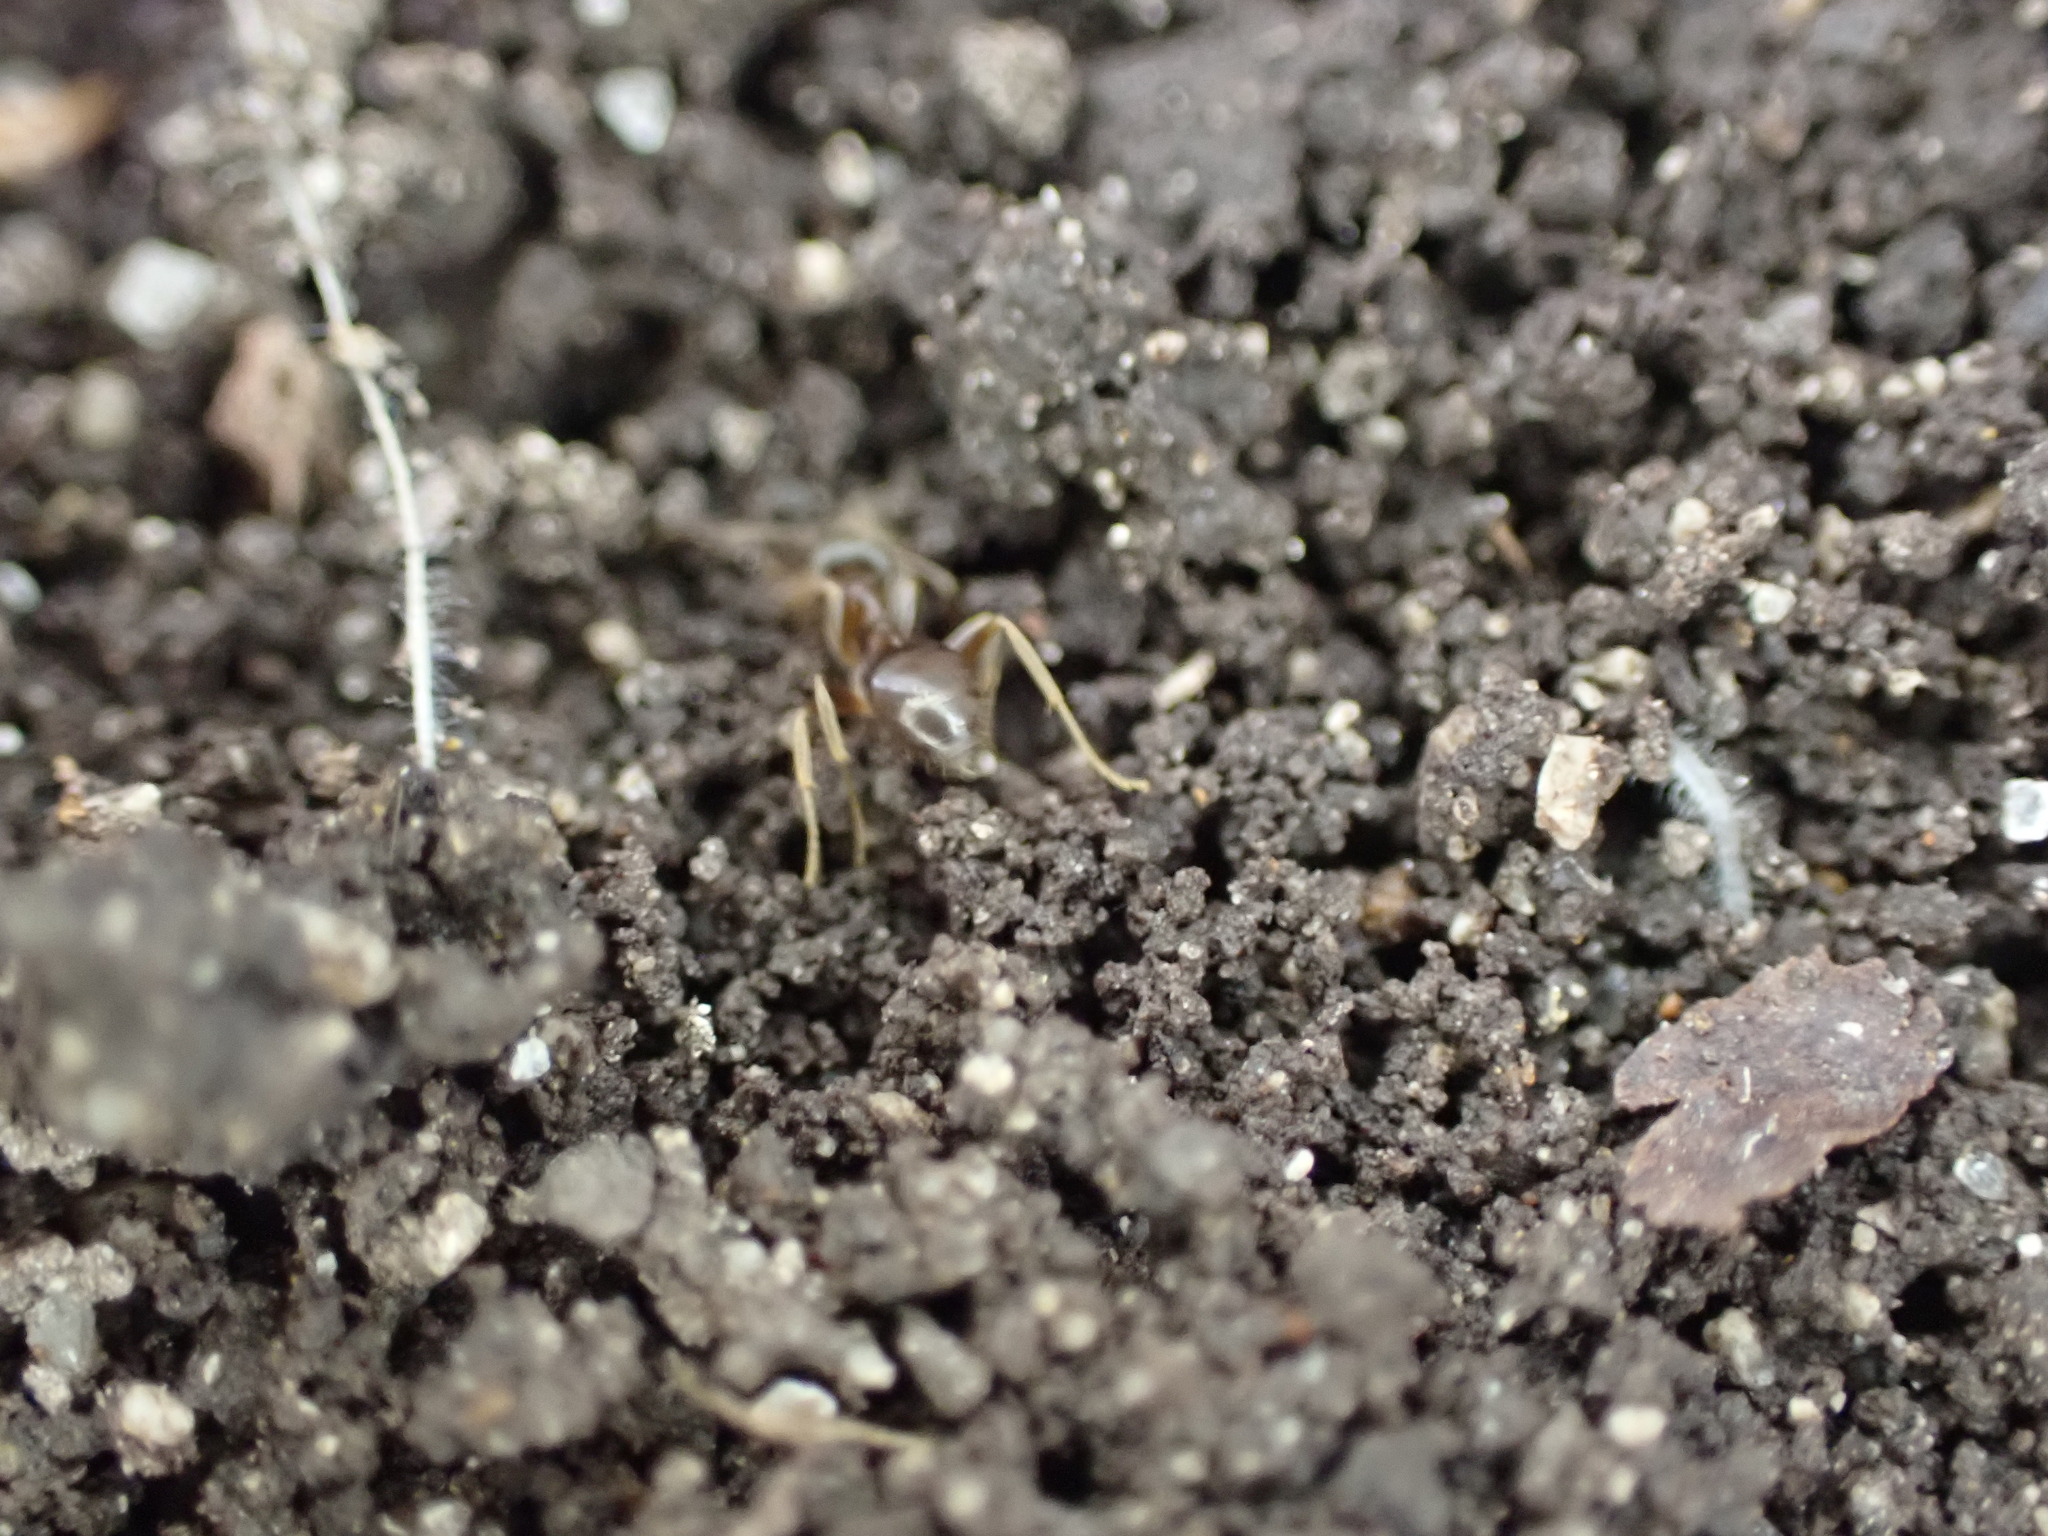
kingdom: Animalia
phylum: Arthropoda
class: Insecta
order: Hymenoptera
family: Formicidae
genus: Lasius
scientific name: Lasius neoniger
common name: Turfgrass ant
